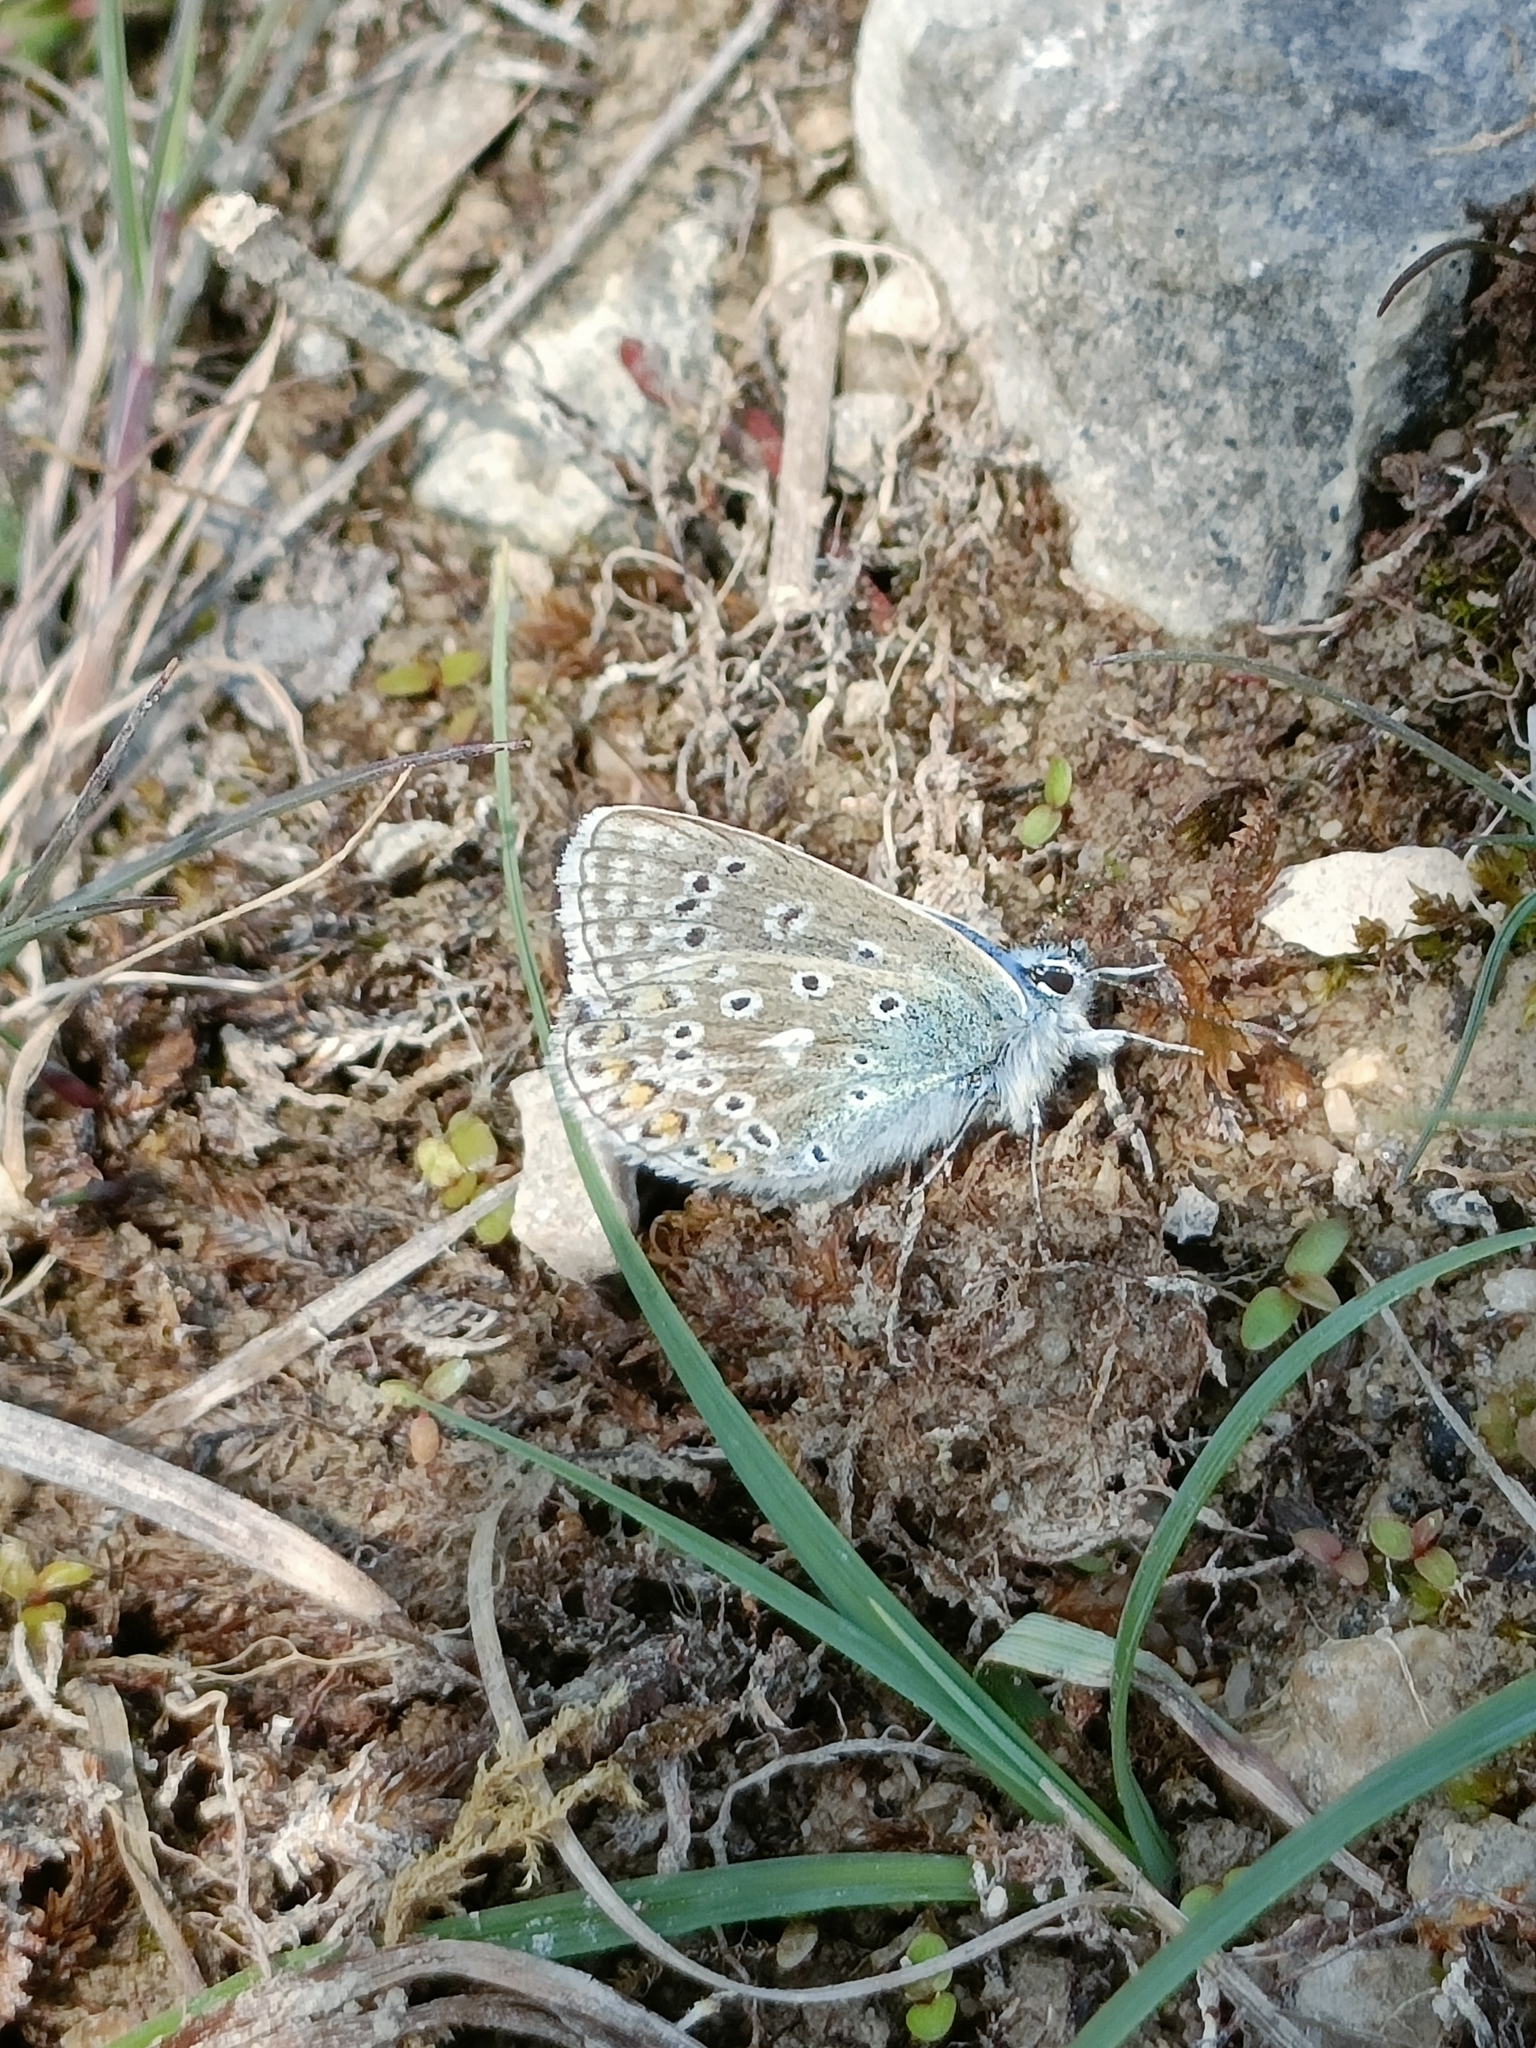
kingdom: Animalia
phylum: Arthropoda
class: Insecta
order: Lepidoptera
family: Lycaenidae
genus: Polyommatus
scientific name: Polyommatus icarus
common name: Common blue
